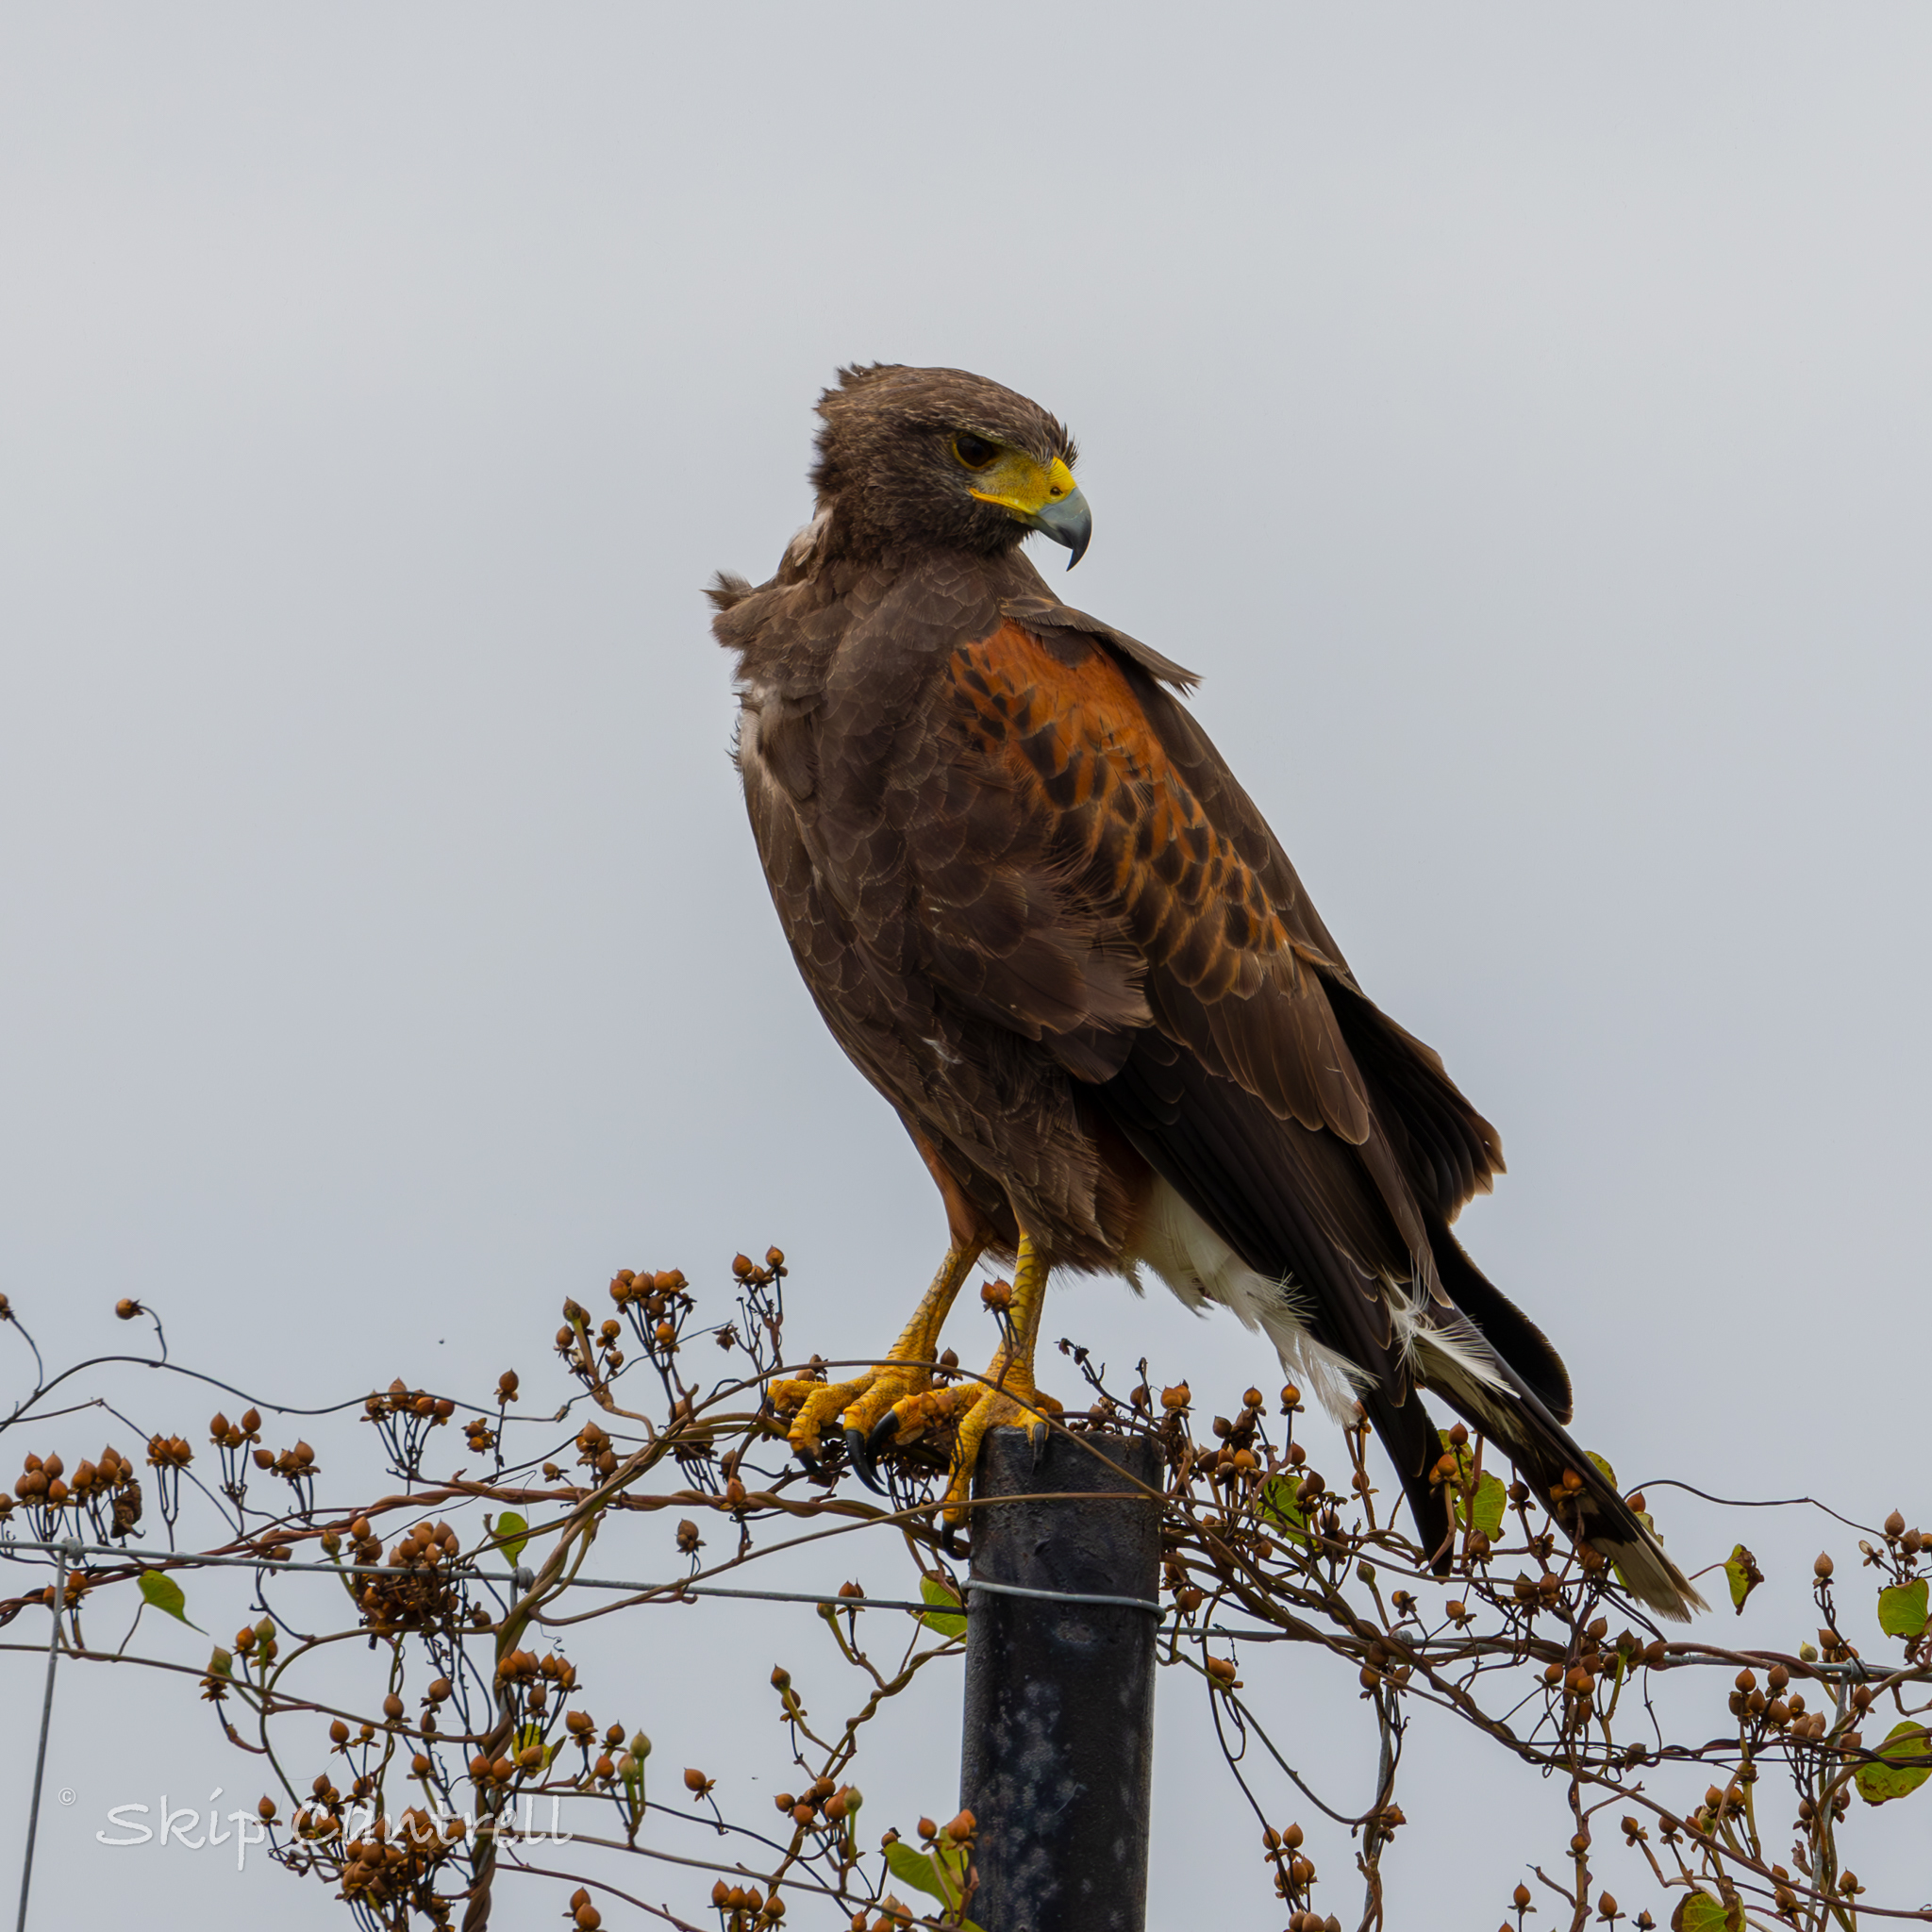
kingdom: Animalia
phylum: Chordata
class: Aves
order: Accipitriformes
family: Accipitridae
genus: Parabuteo
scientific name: Parabuteo unicinctus
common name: Harris's hawk
